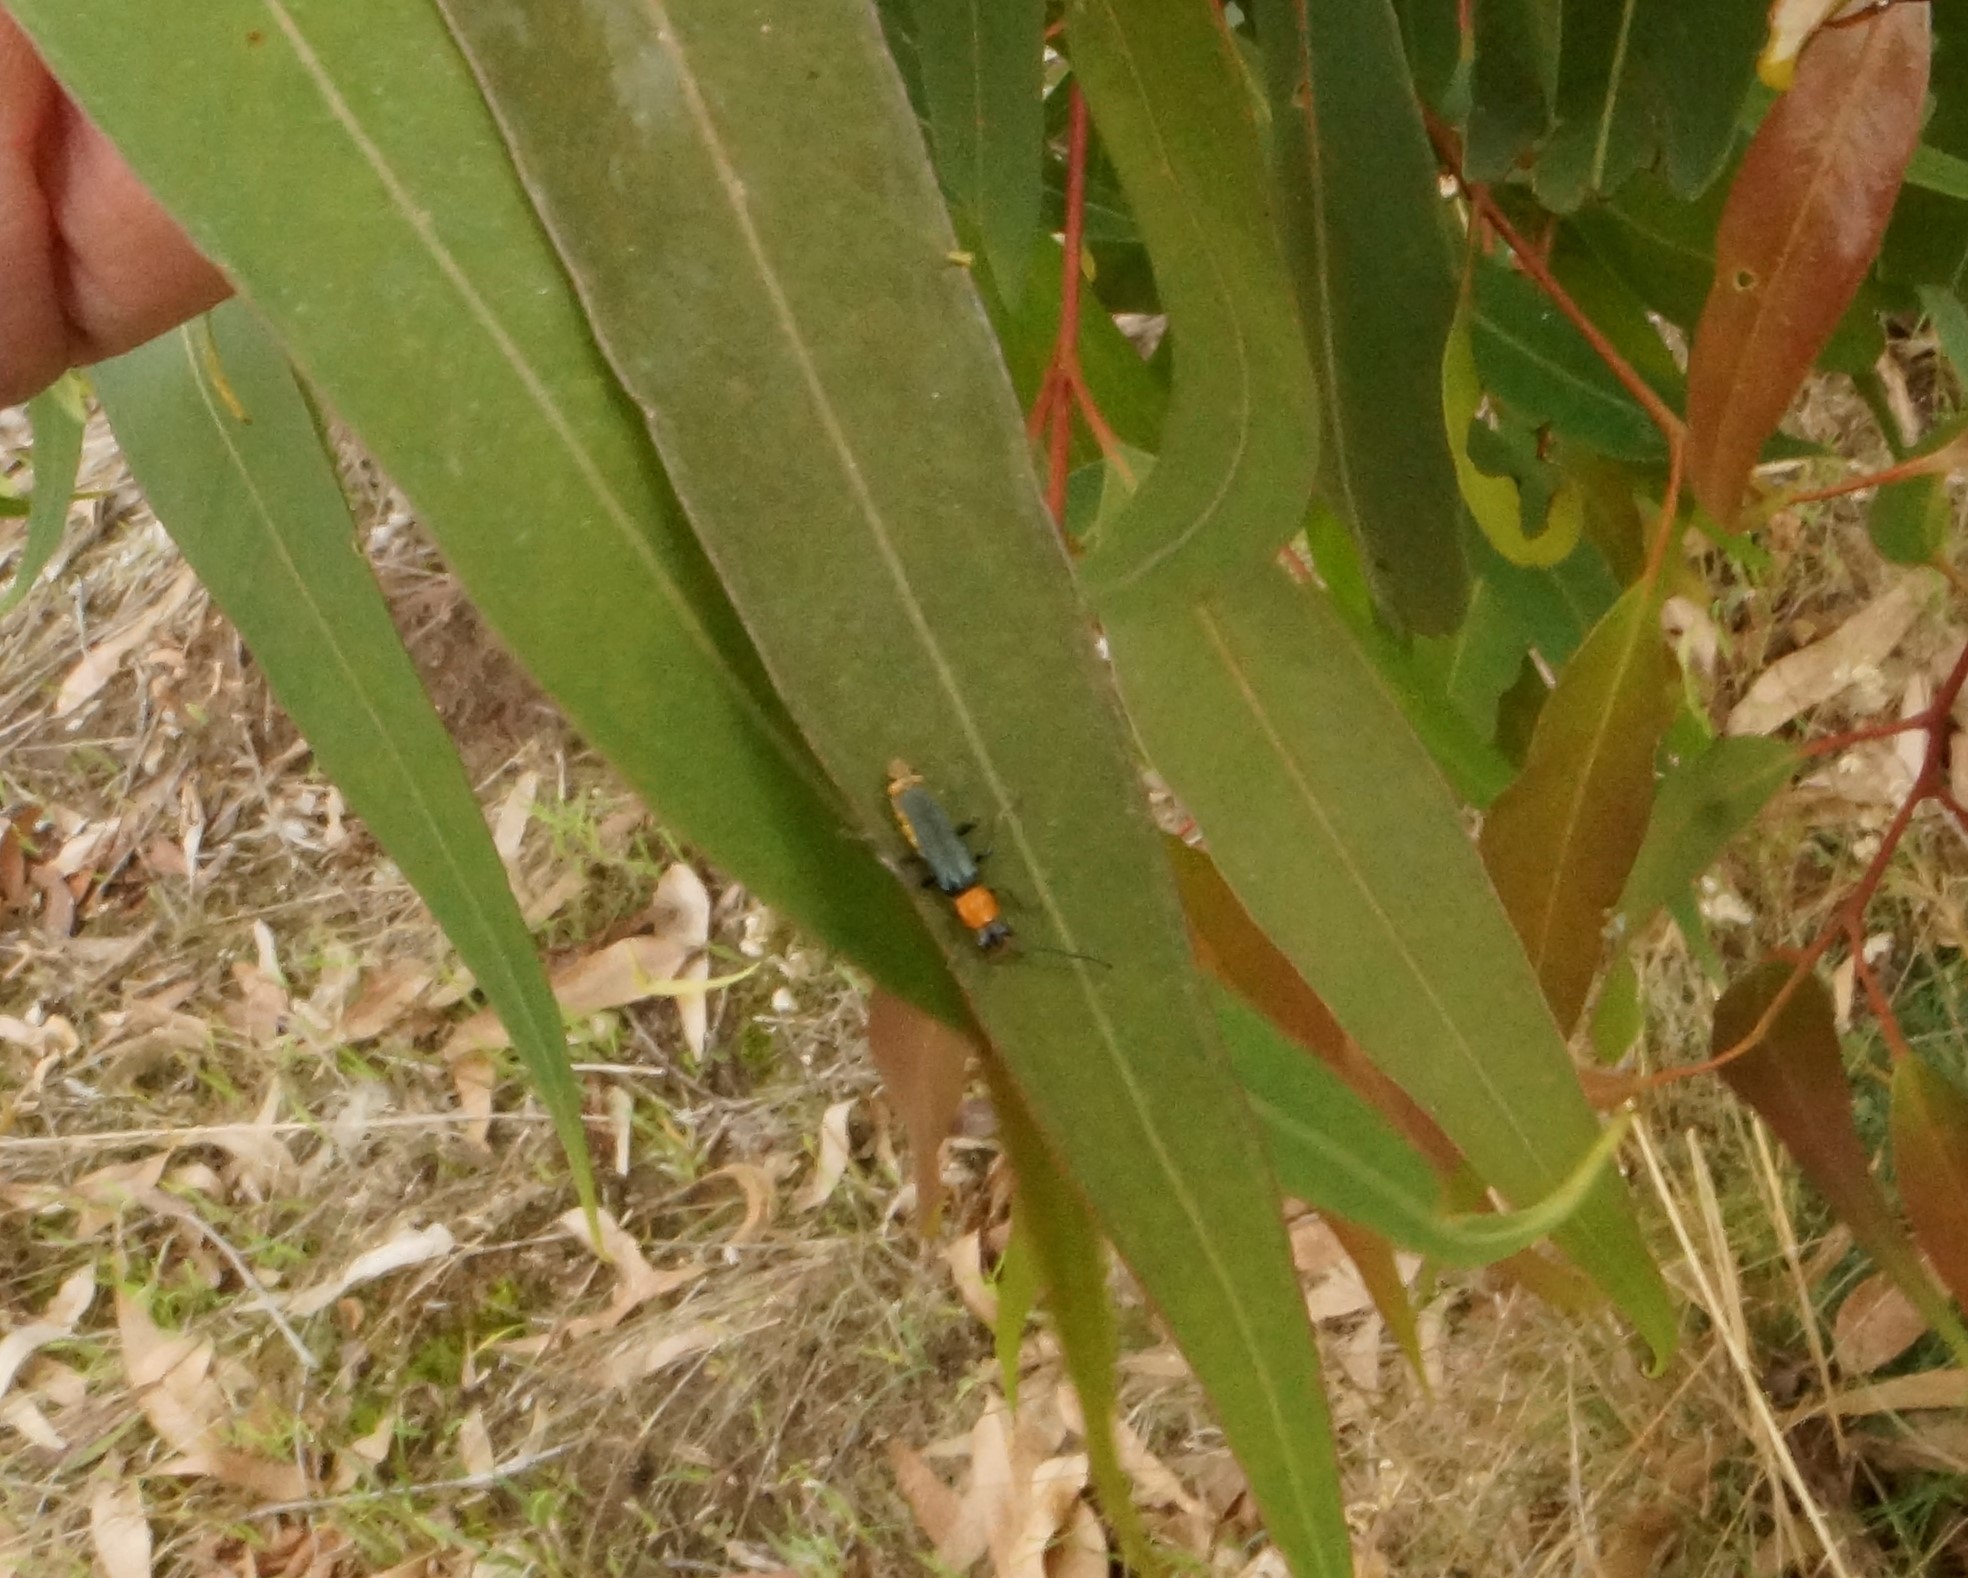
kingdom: Animalia
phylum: Arthropoda
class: Insecta
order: Coleoptera
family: Cantharidae
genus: Chauliognathus
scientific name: Chauliognathus
